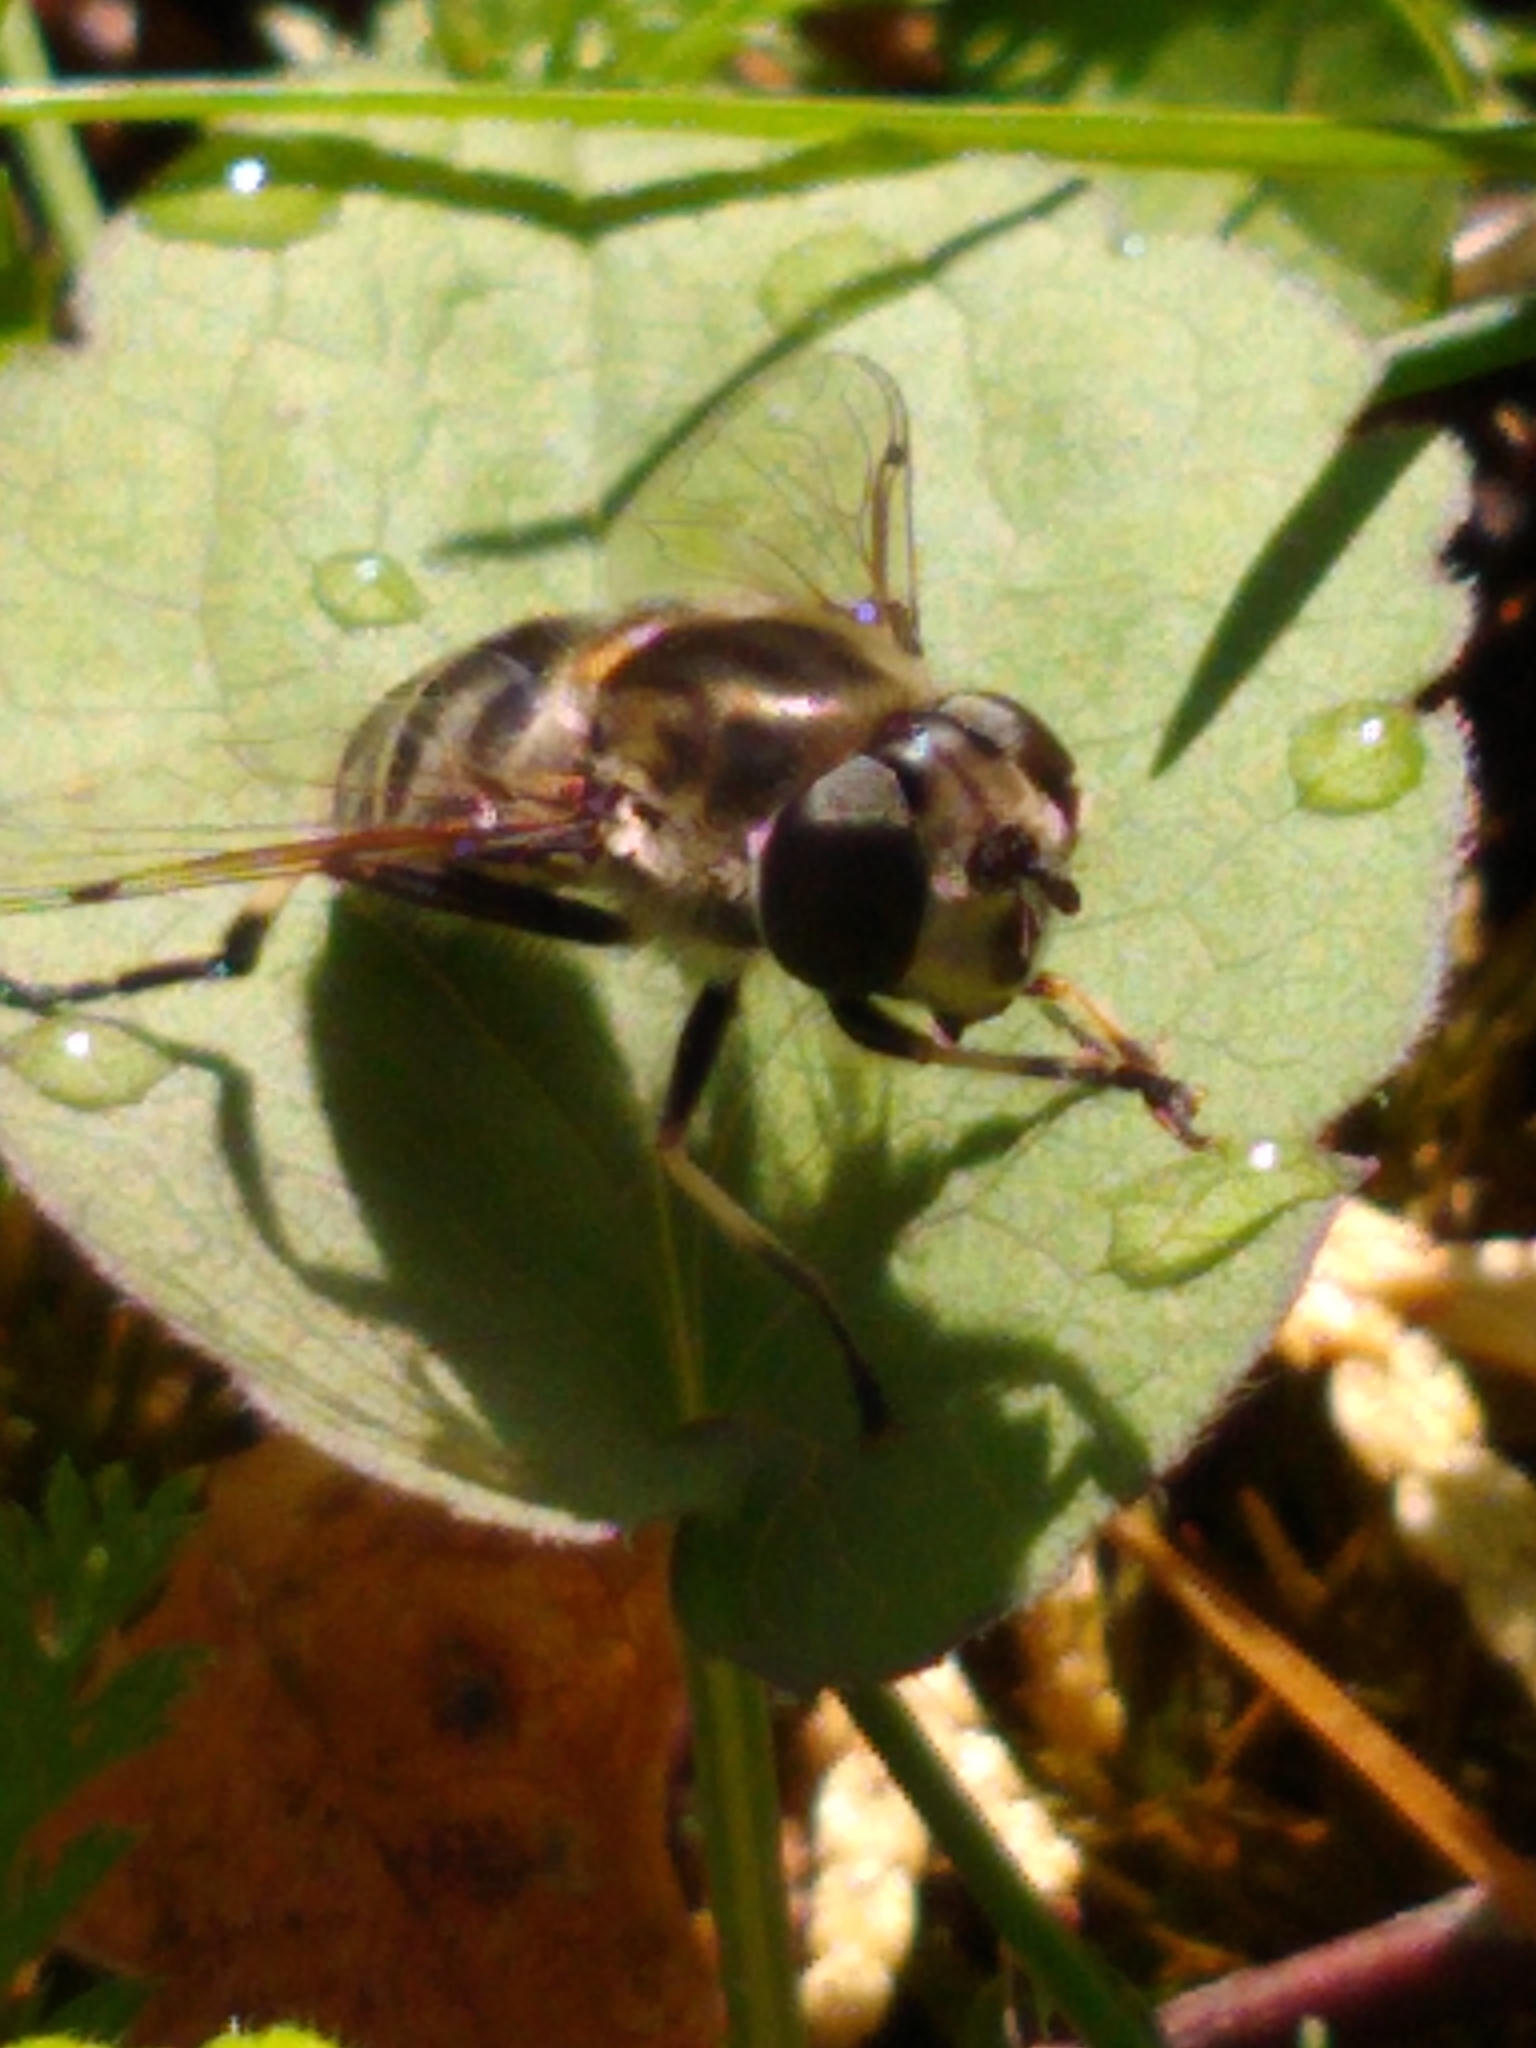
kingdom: Animalia
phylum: Arthropoda
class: Insecta
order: Diptera
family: Syrphidae
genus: Eristalis
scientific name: Eristalis dimidiata
